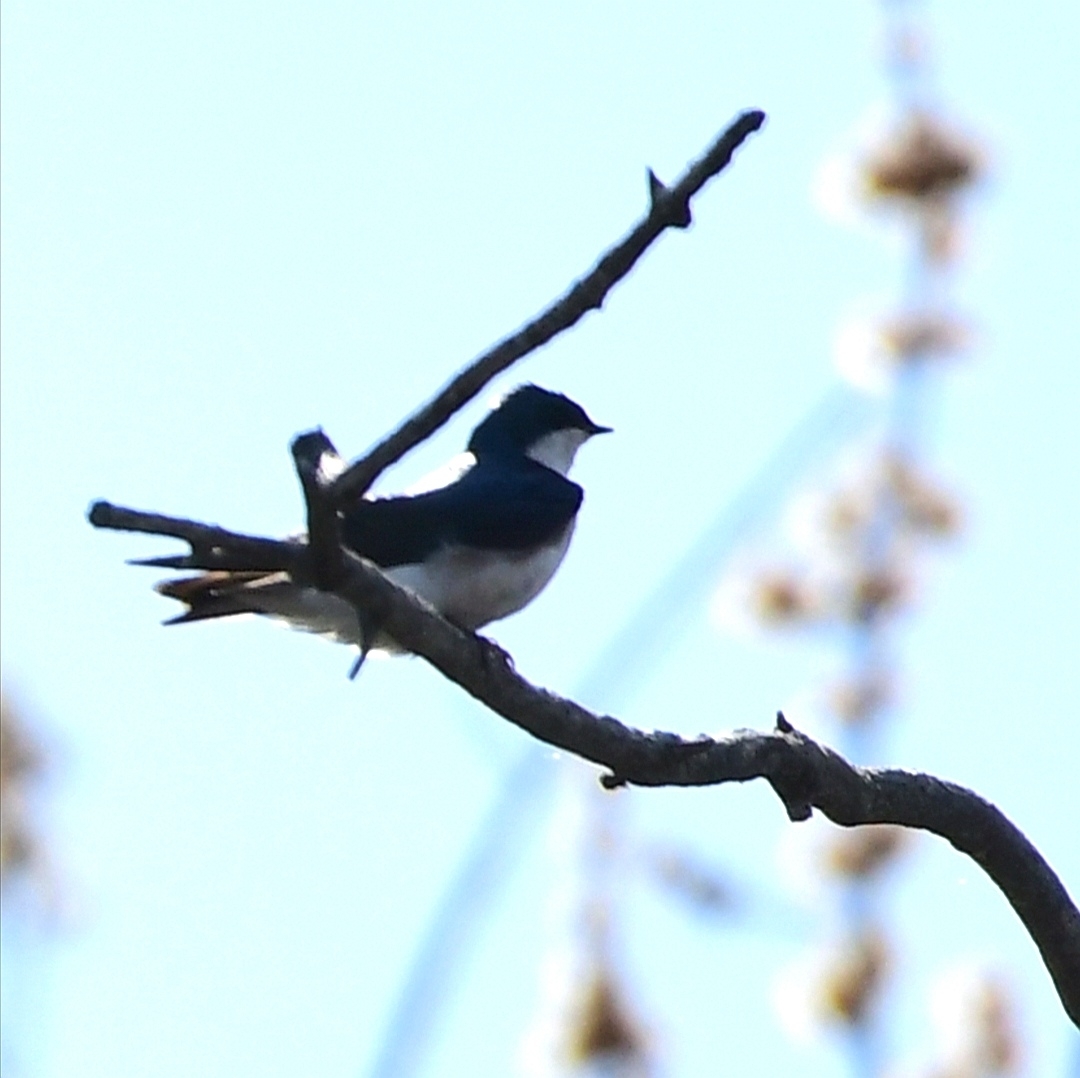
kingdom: Animalia
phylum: Chordata
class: Aves
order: Passeriformes
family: Hirundinidae
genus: Tachycineta
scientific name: Tachycineta bicolor
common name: Tree swallow
